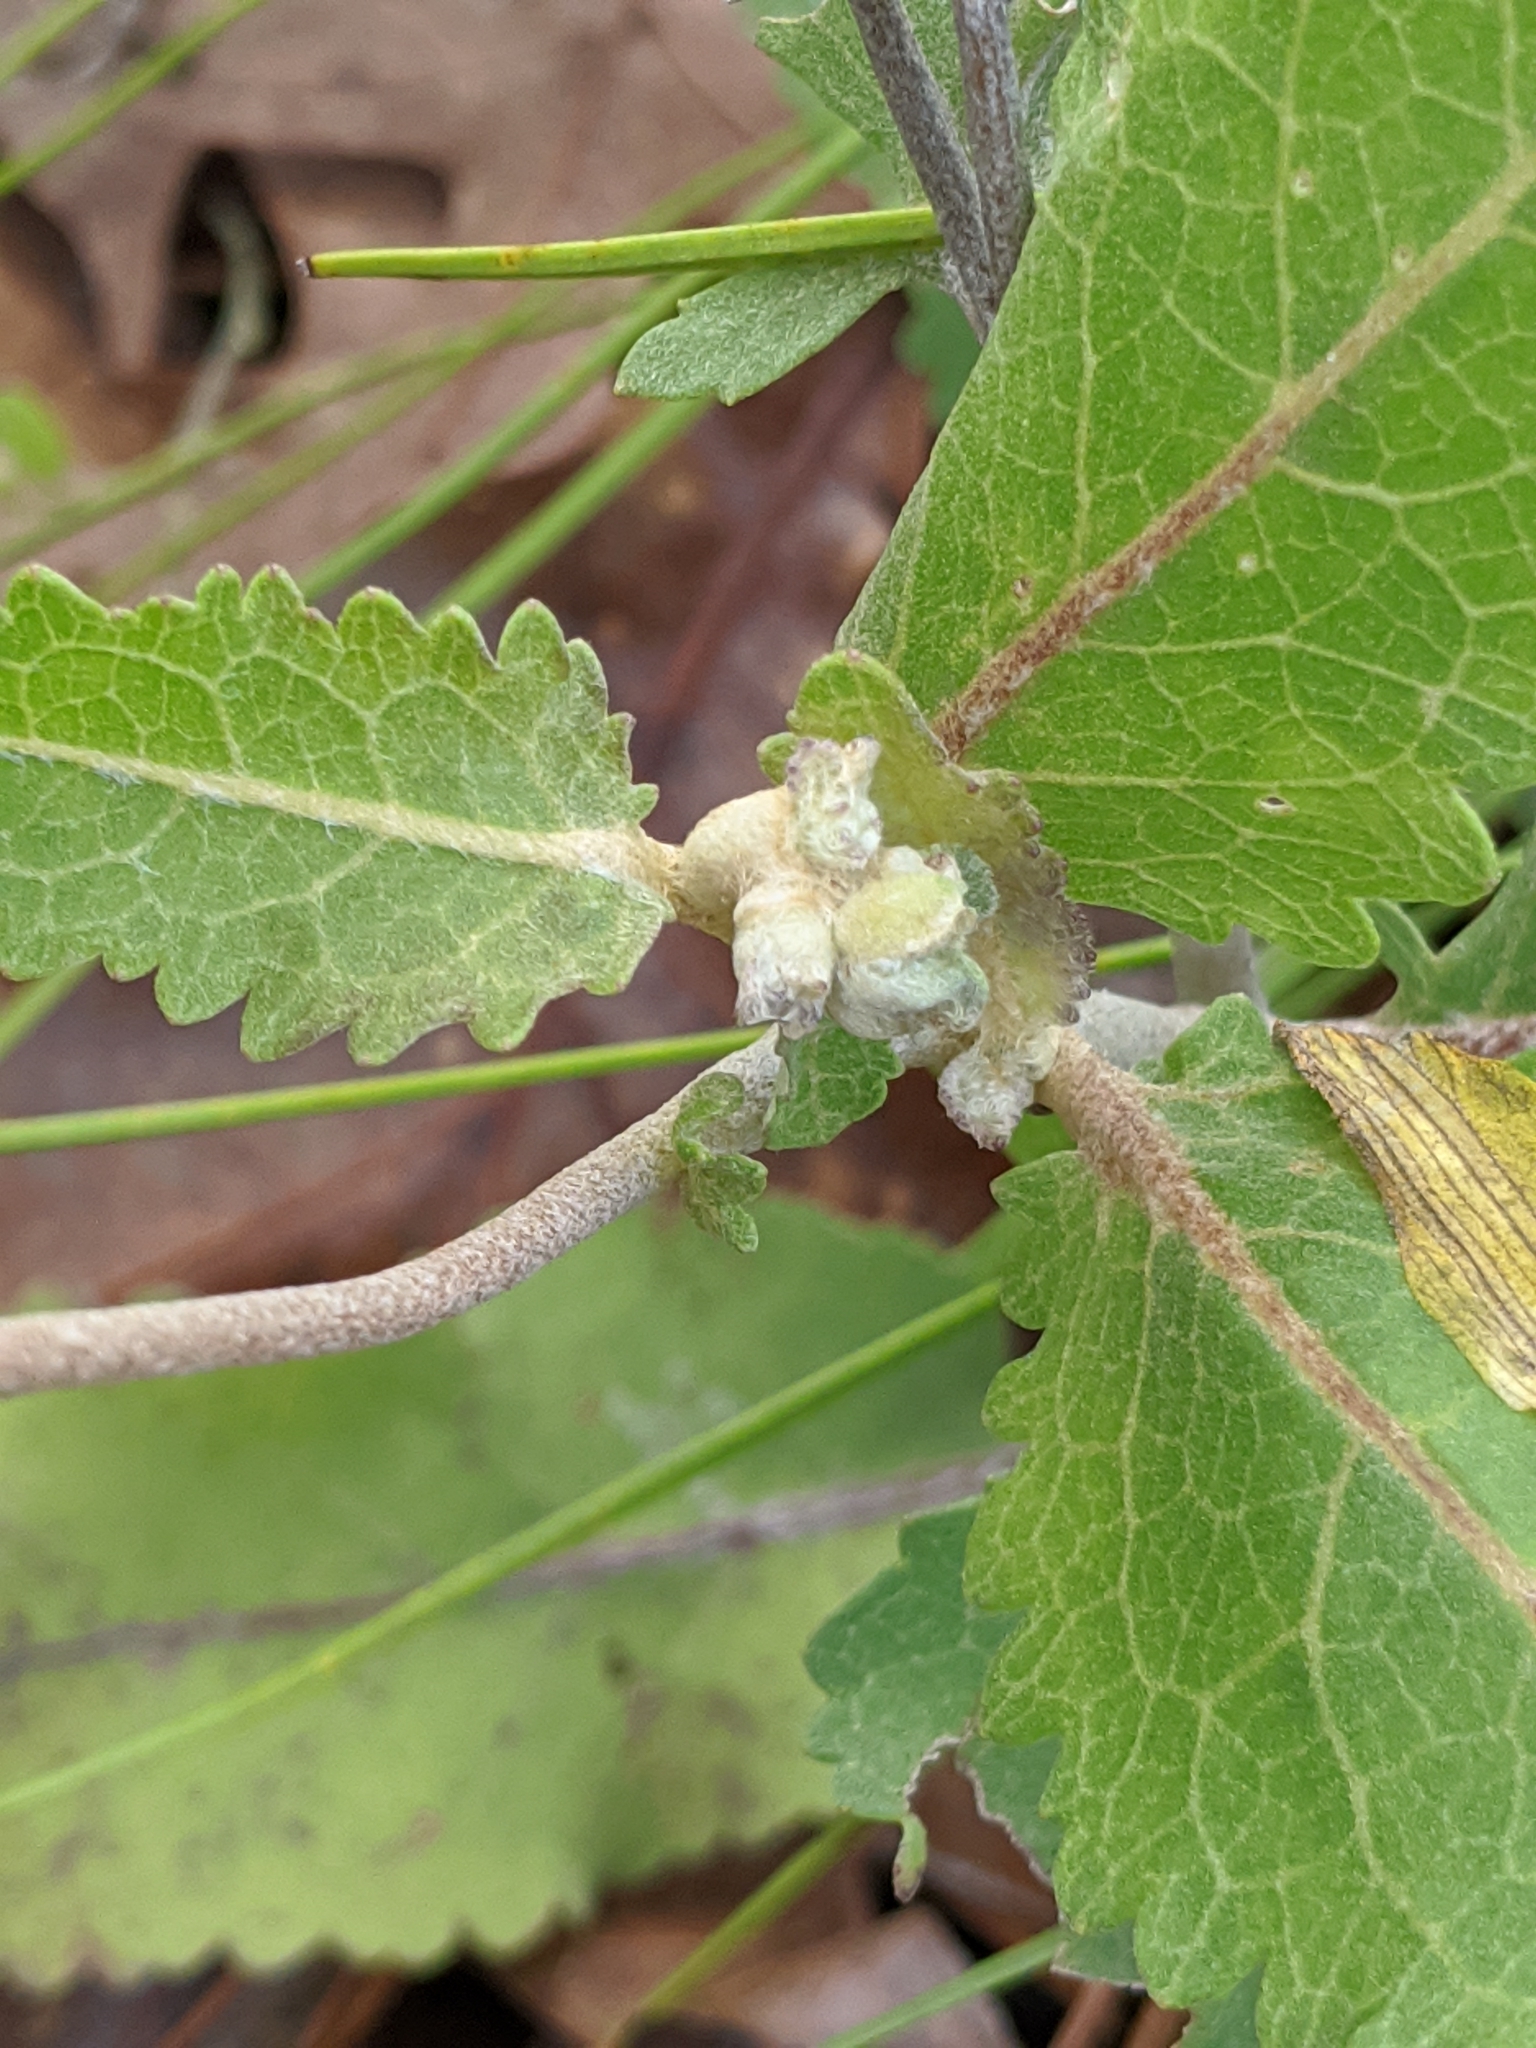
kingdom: Plantae
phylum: Tracheophyta
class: Magnoliopsida
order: Asterales
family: Asteraceae
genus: Berlandiera
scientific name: Berlandiera pumila
